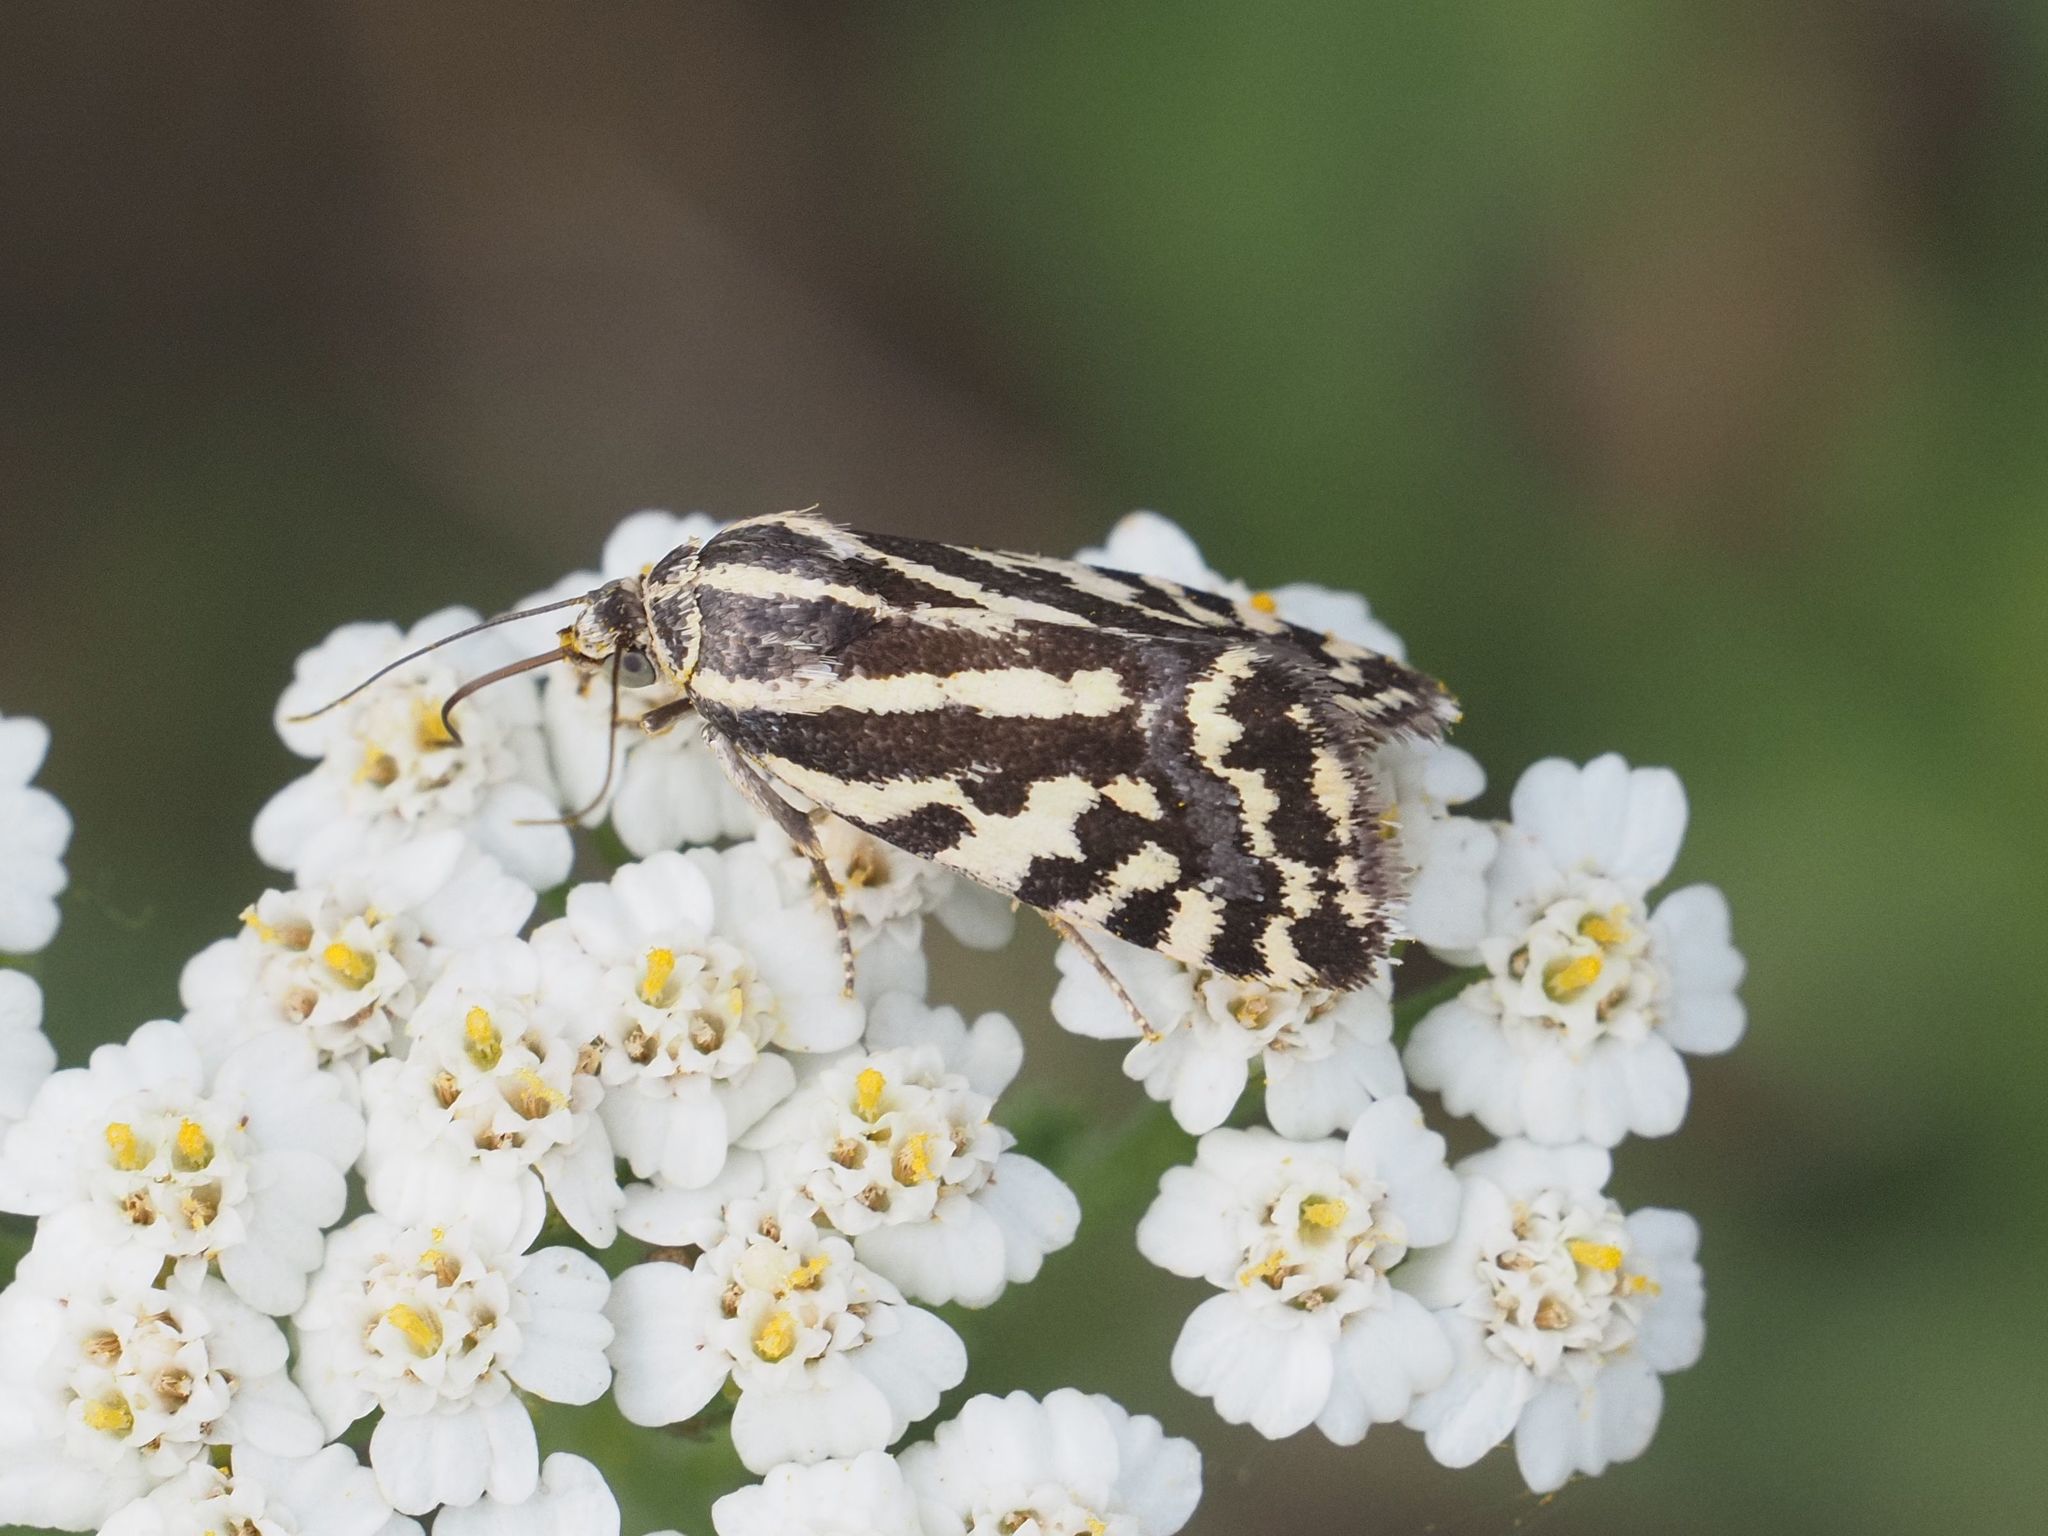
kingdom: Animalia
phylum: Arthropoda
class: Insecta
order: Lepidoptera
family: Noctuidae
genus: Acontia
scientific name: Acontia trabealis
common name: Spotted sulphur
